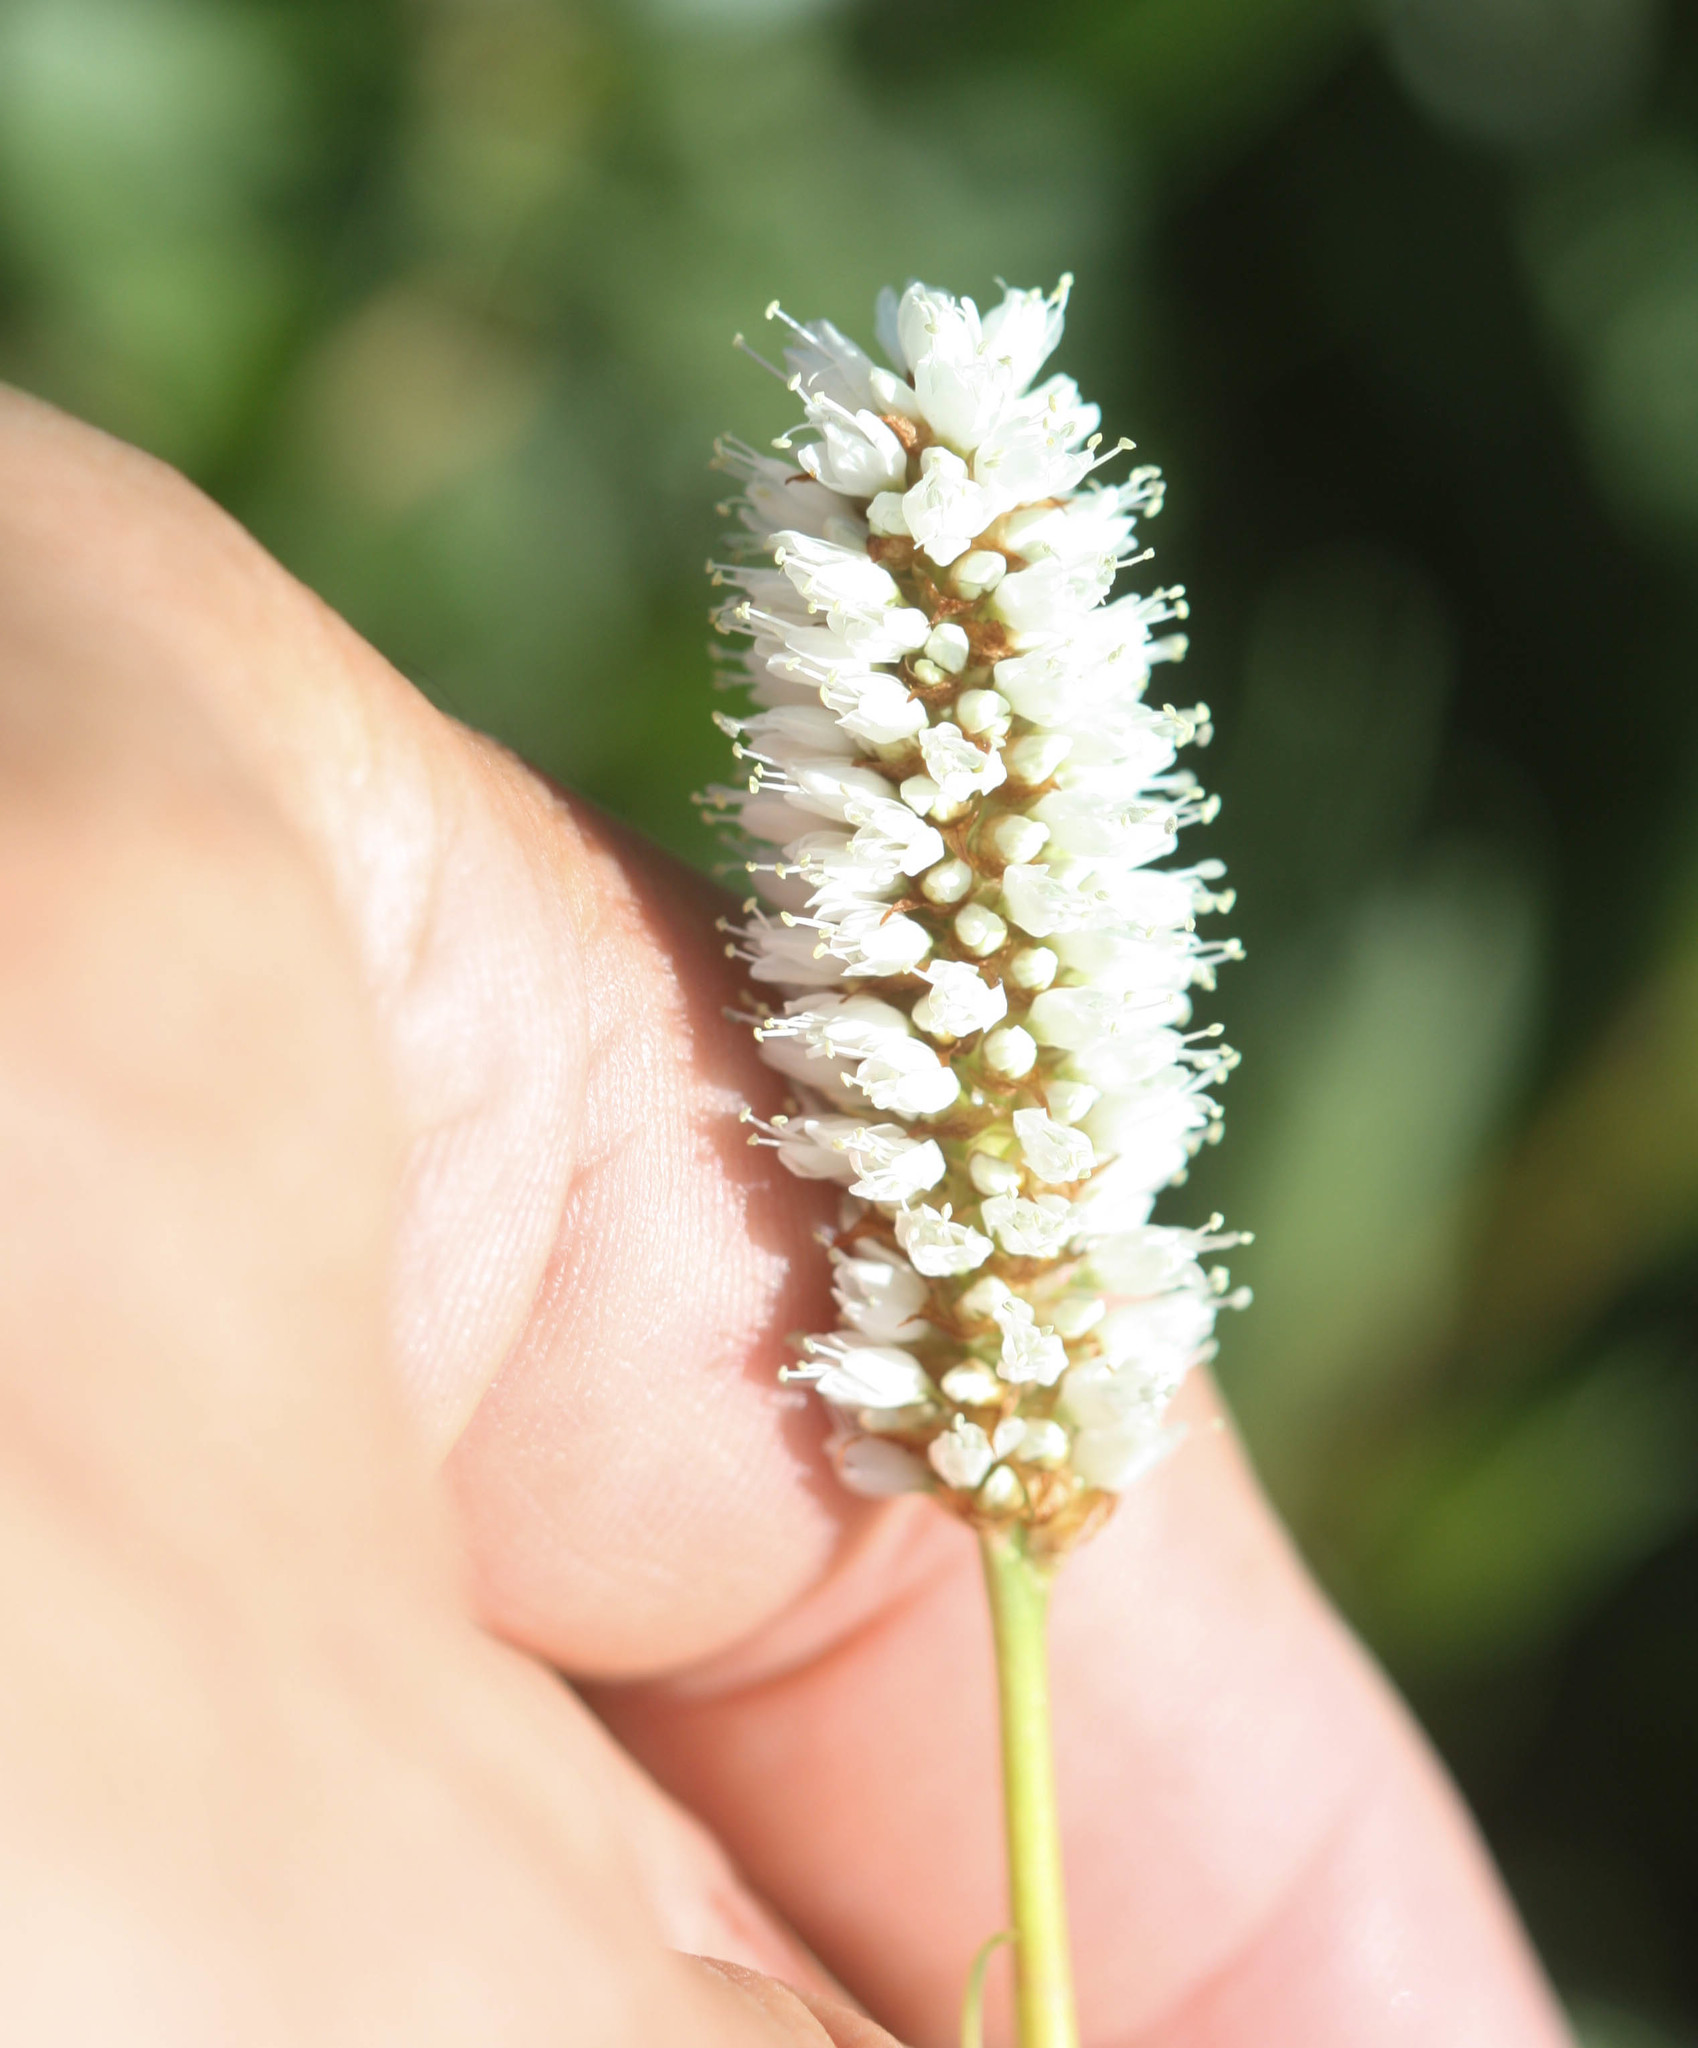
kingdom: Plantae
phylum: Tracheophyta
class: Magnoliopsida
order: Caryophyllales
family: Polygonaceae
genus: Bistorta
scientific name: Bistorta bistortoides
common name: American bistort
